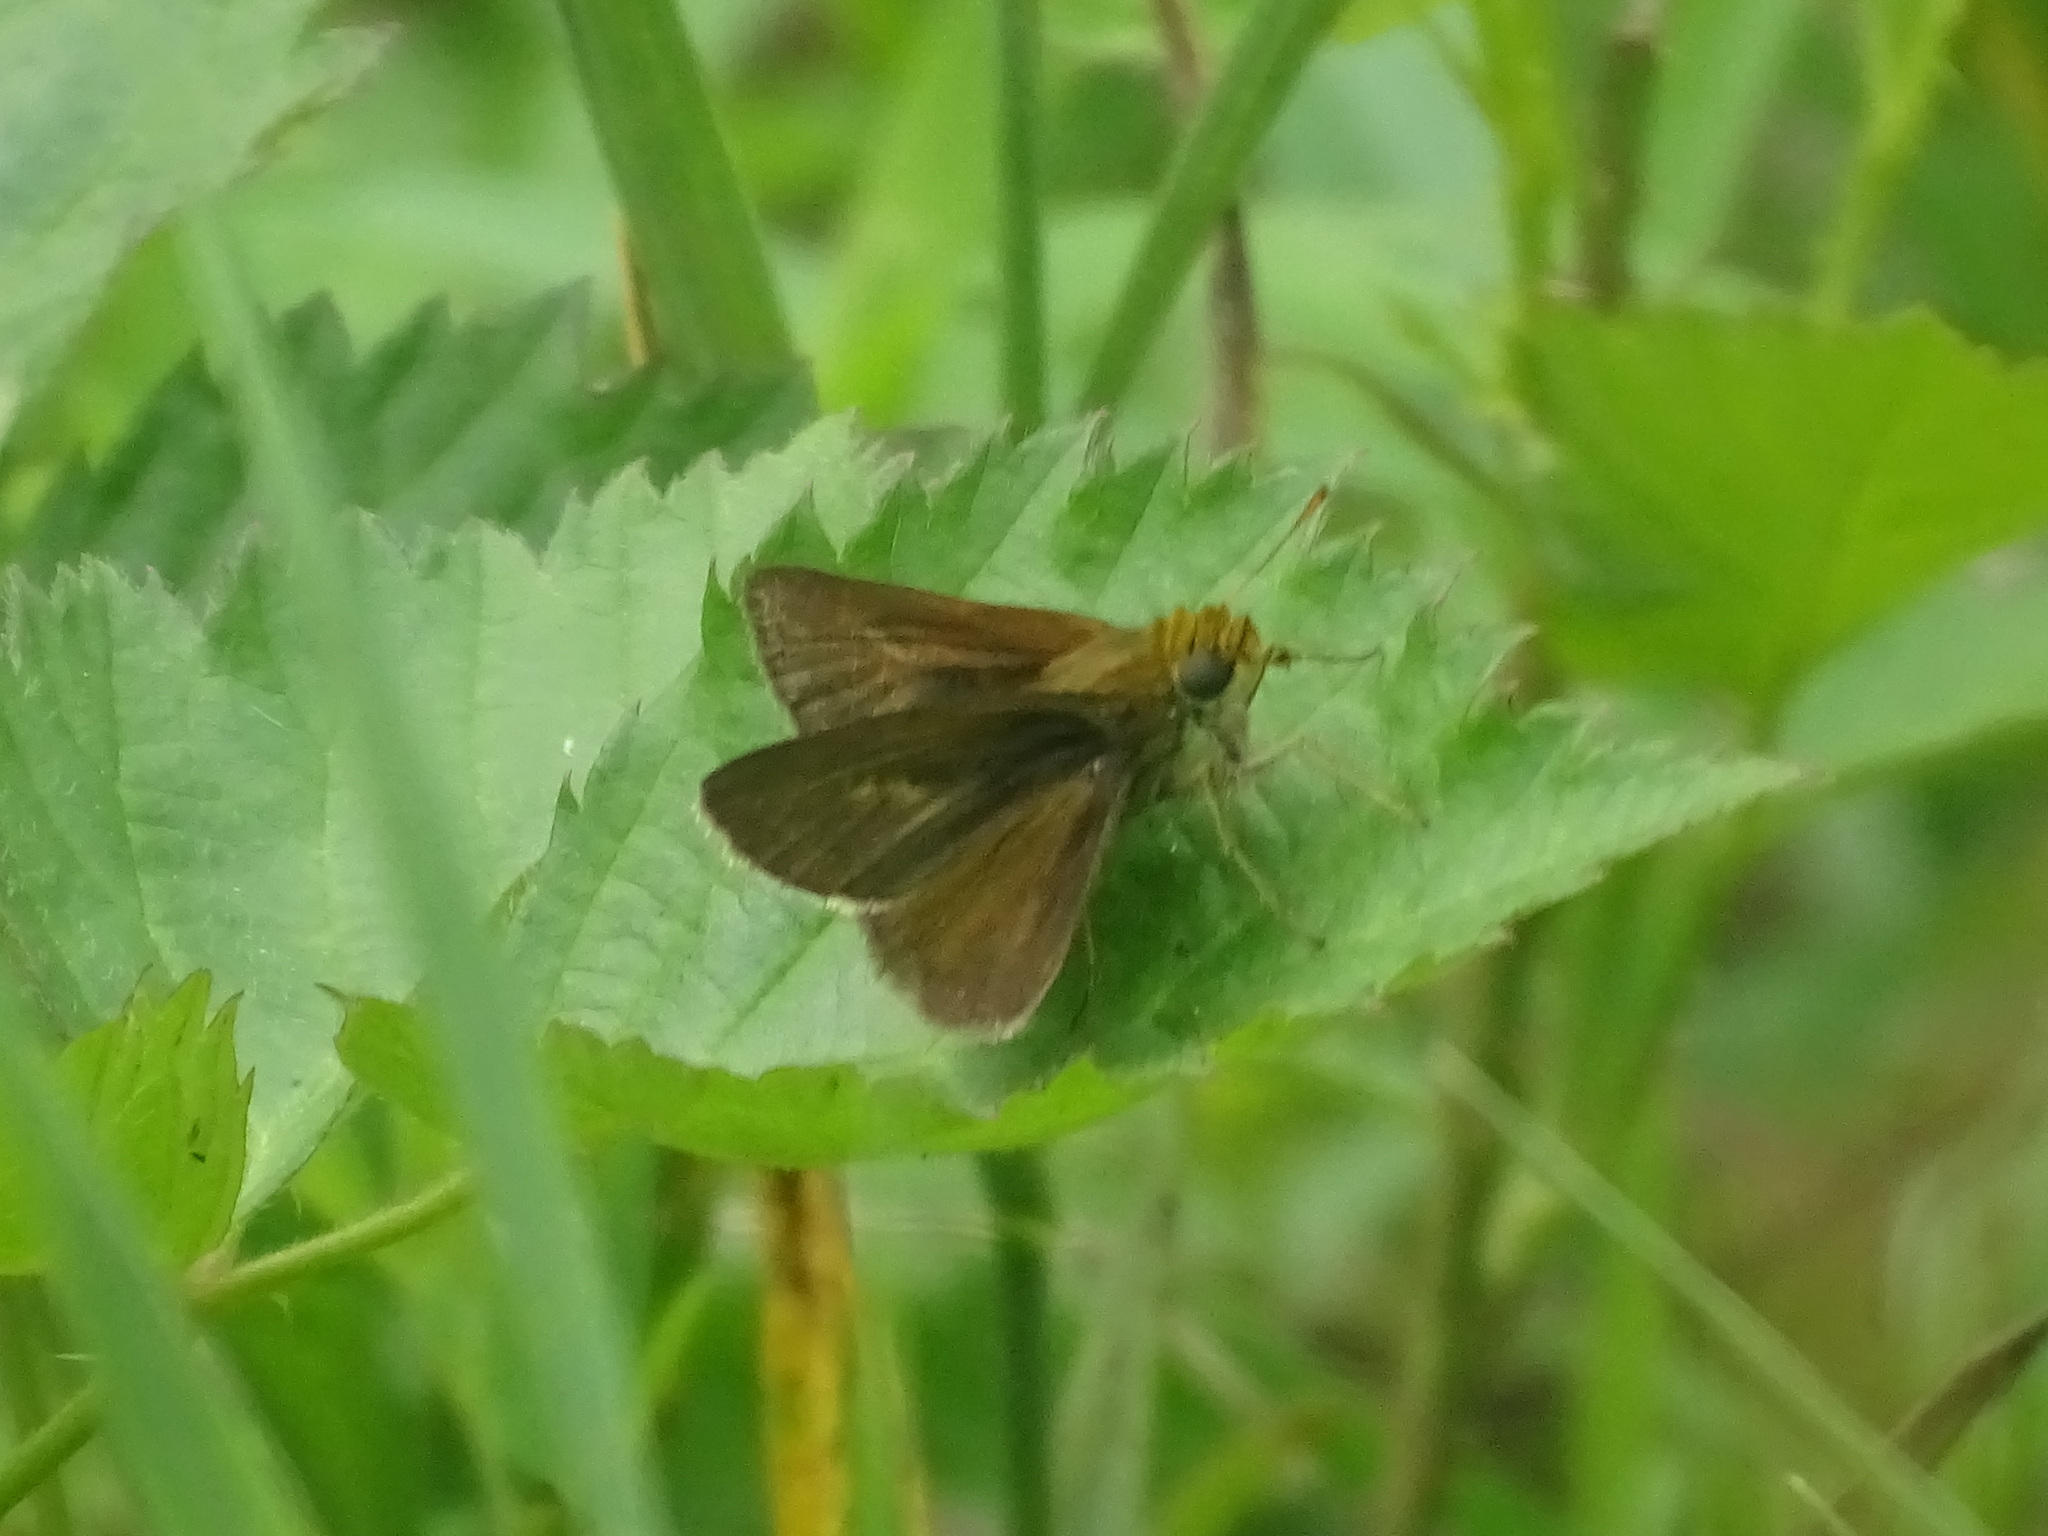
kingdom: Animalia
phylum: Arthropoda
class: Insecta
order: Lepidoptera
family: Hesperiidae
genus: Euphyes
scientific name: Euphyes vestris
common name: Dun skipper
